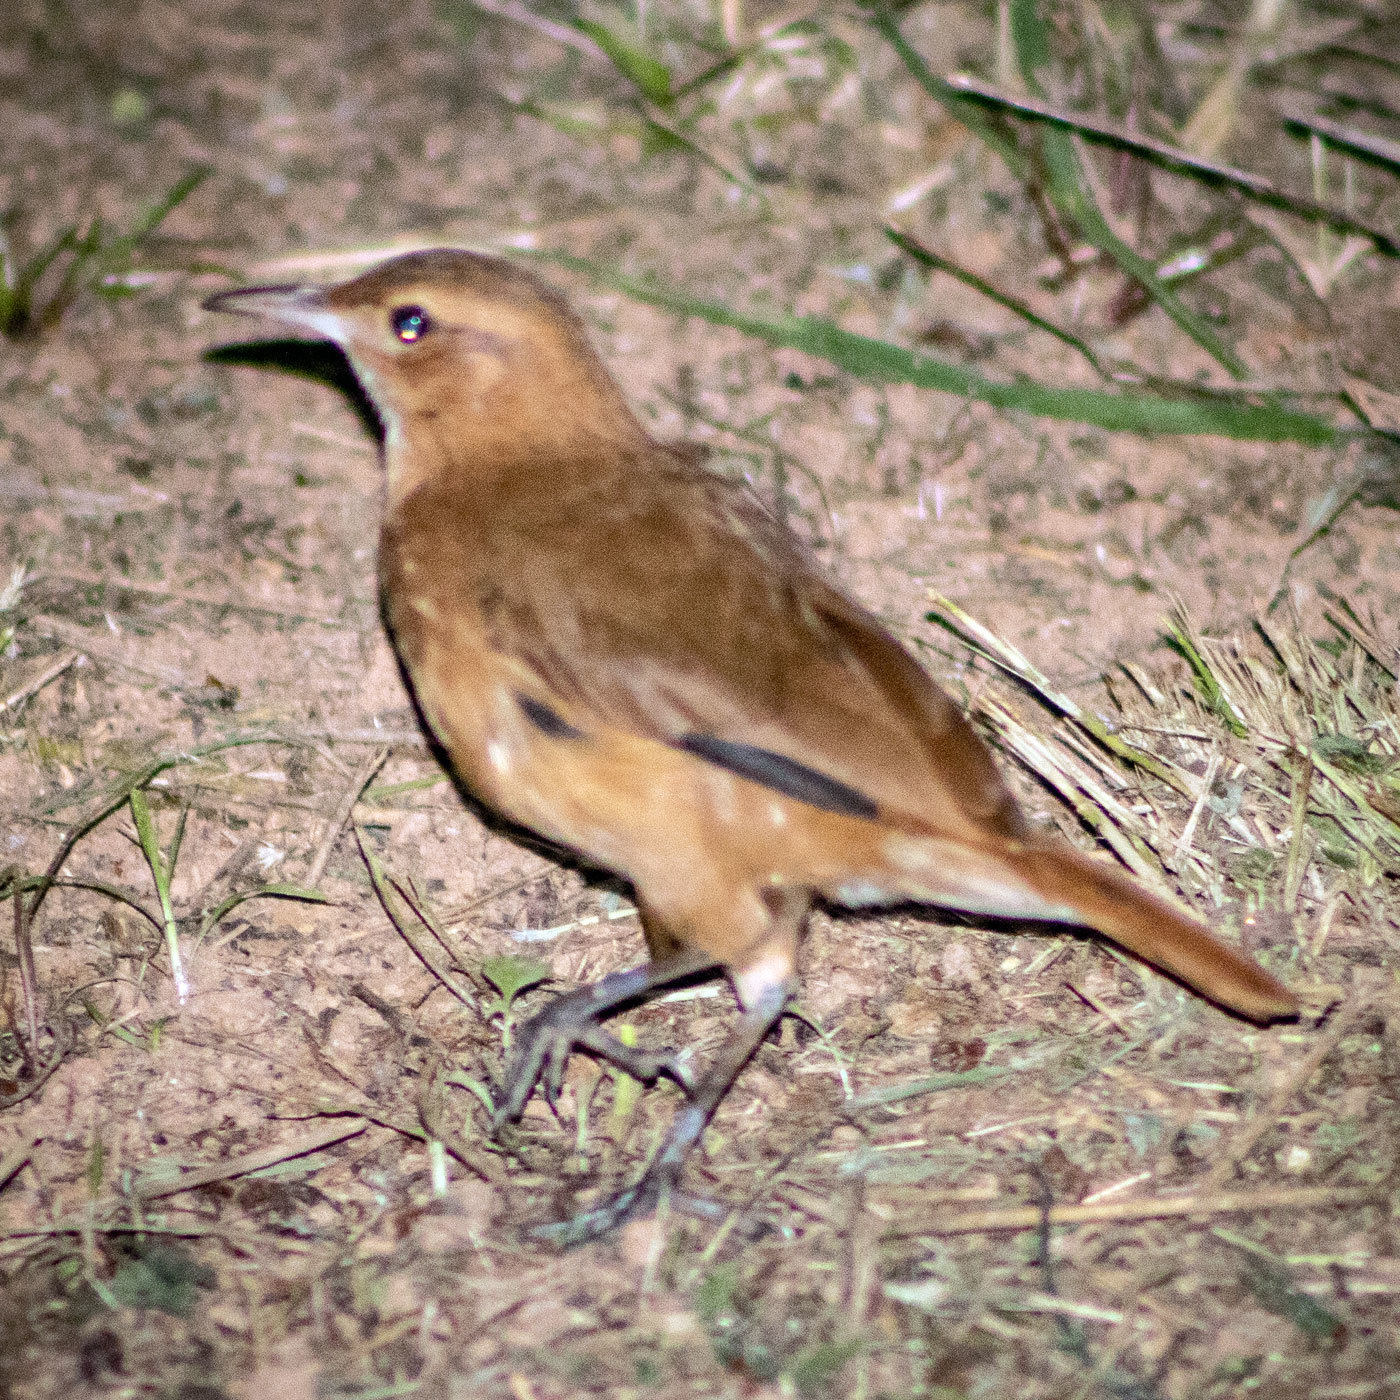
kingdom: Animalia
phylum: Chordata
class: Aves
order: Passeriformes
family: Furnariidae
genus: Furnarius
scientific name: Furnarius rufus
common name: Rufous hornero
